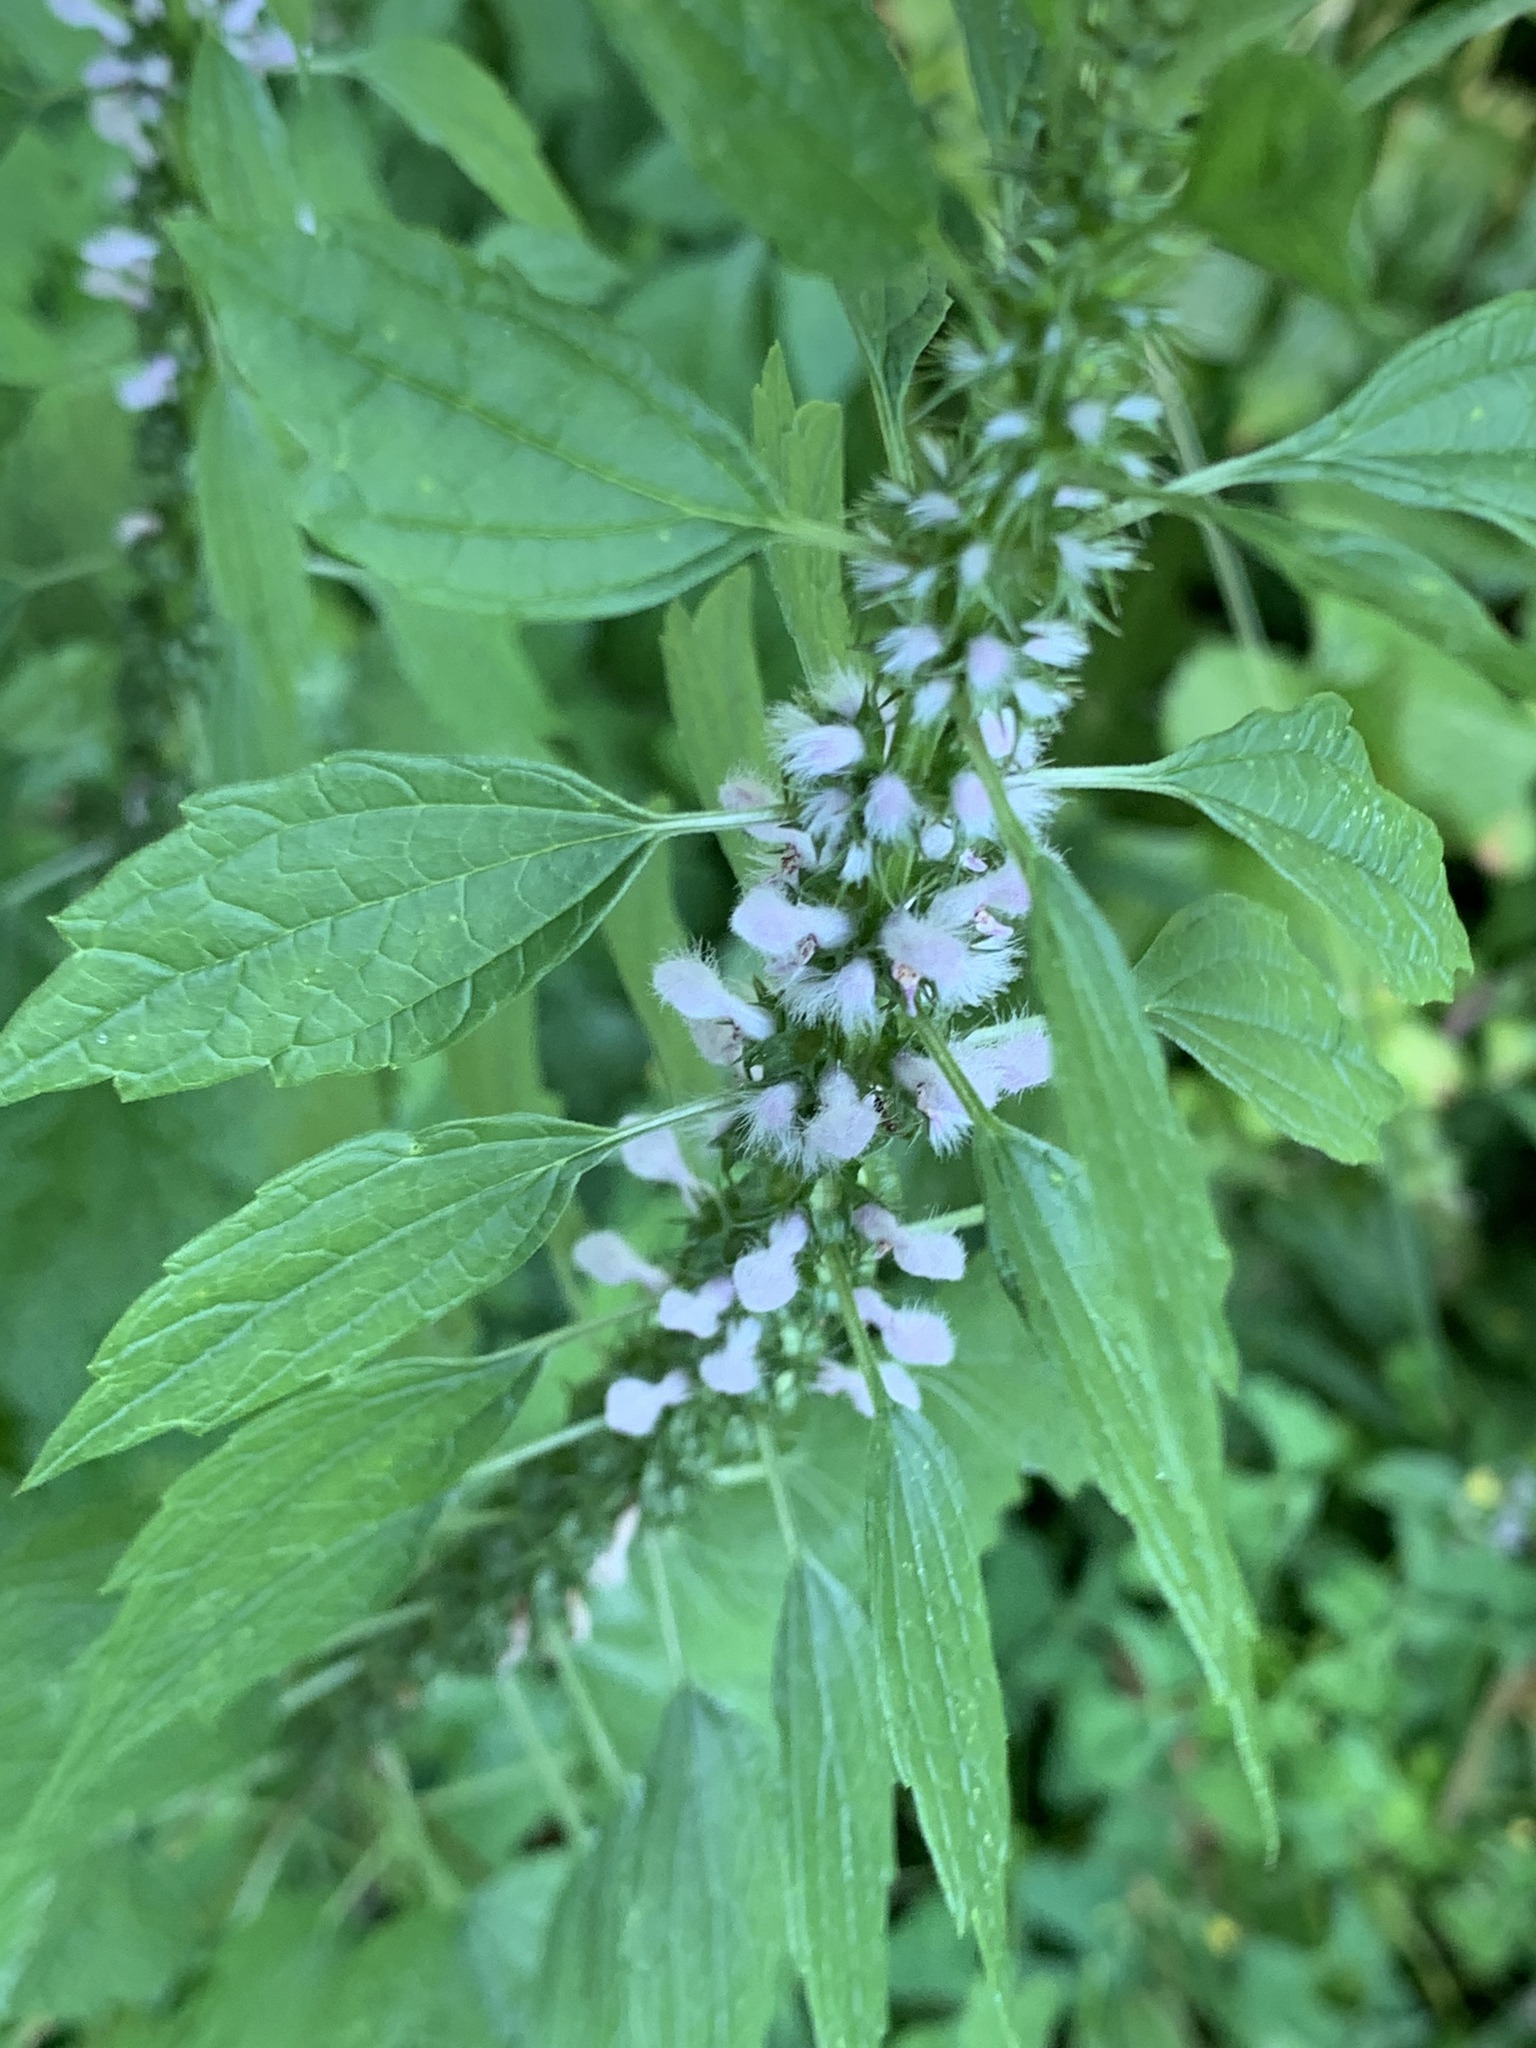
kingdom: Plantae
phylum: Tracheophyta
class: Magnoliopsida
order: Lamiales
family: Lamiaceae
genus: Leonurus
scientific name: Leonurus cardiaca
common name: Motherwort
